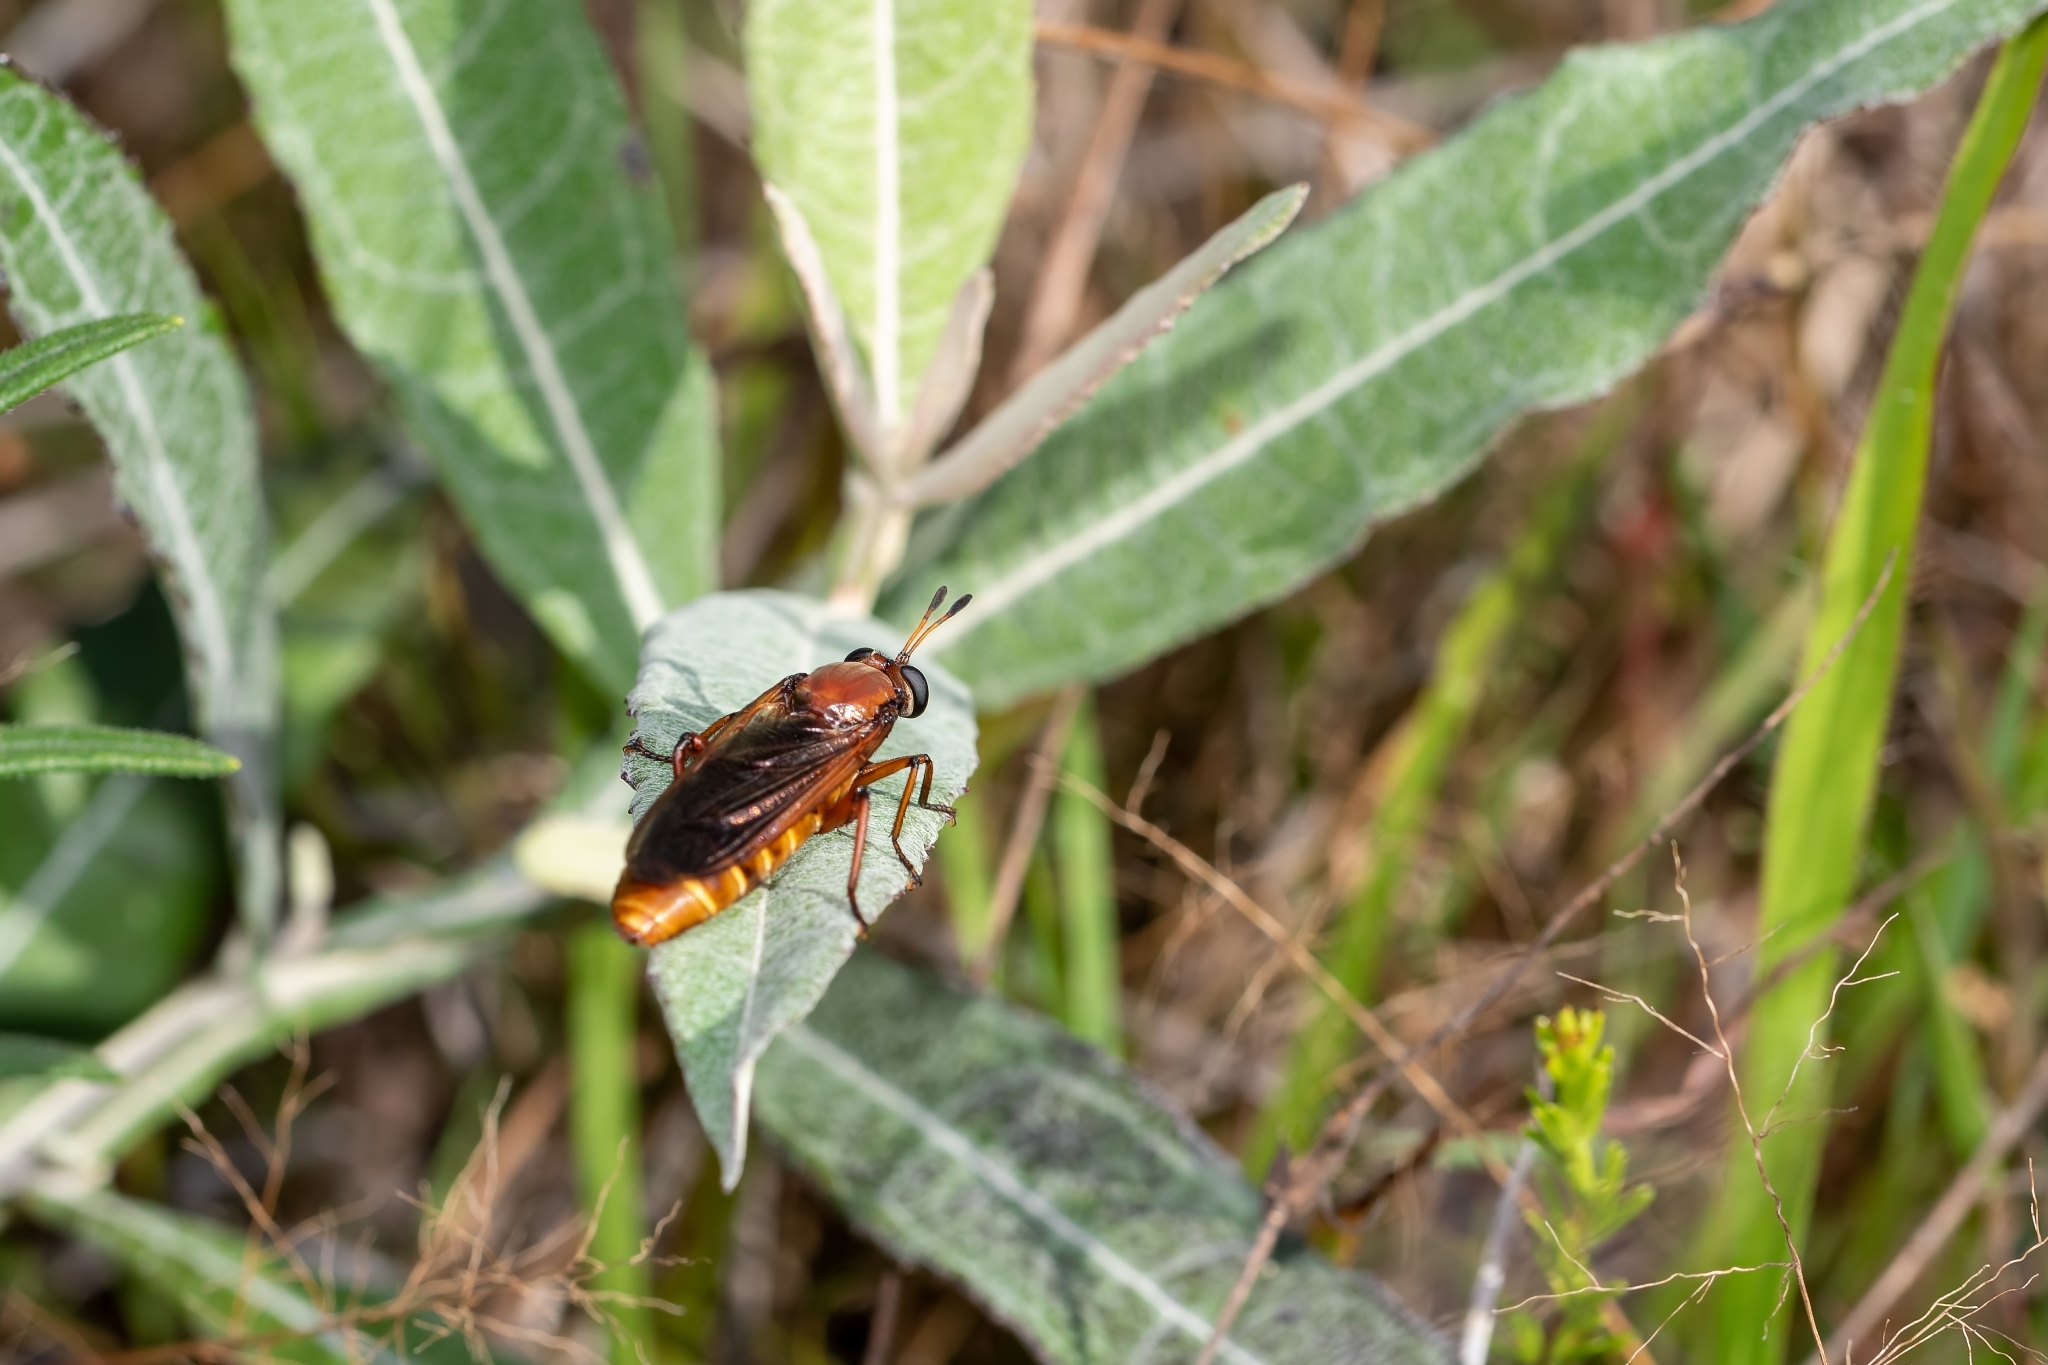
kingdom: Animalia
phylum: Arthropoda
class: Insecta
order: Diptera
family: Mydidae
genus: Mydas
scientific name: Mydas maculiventris
